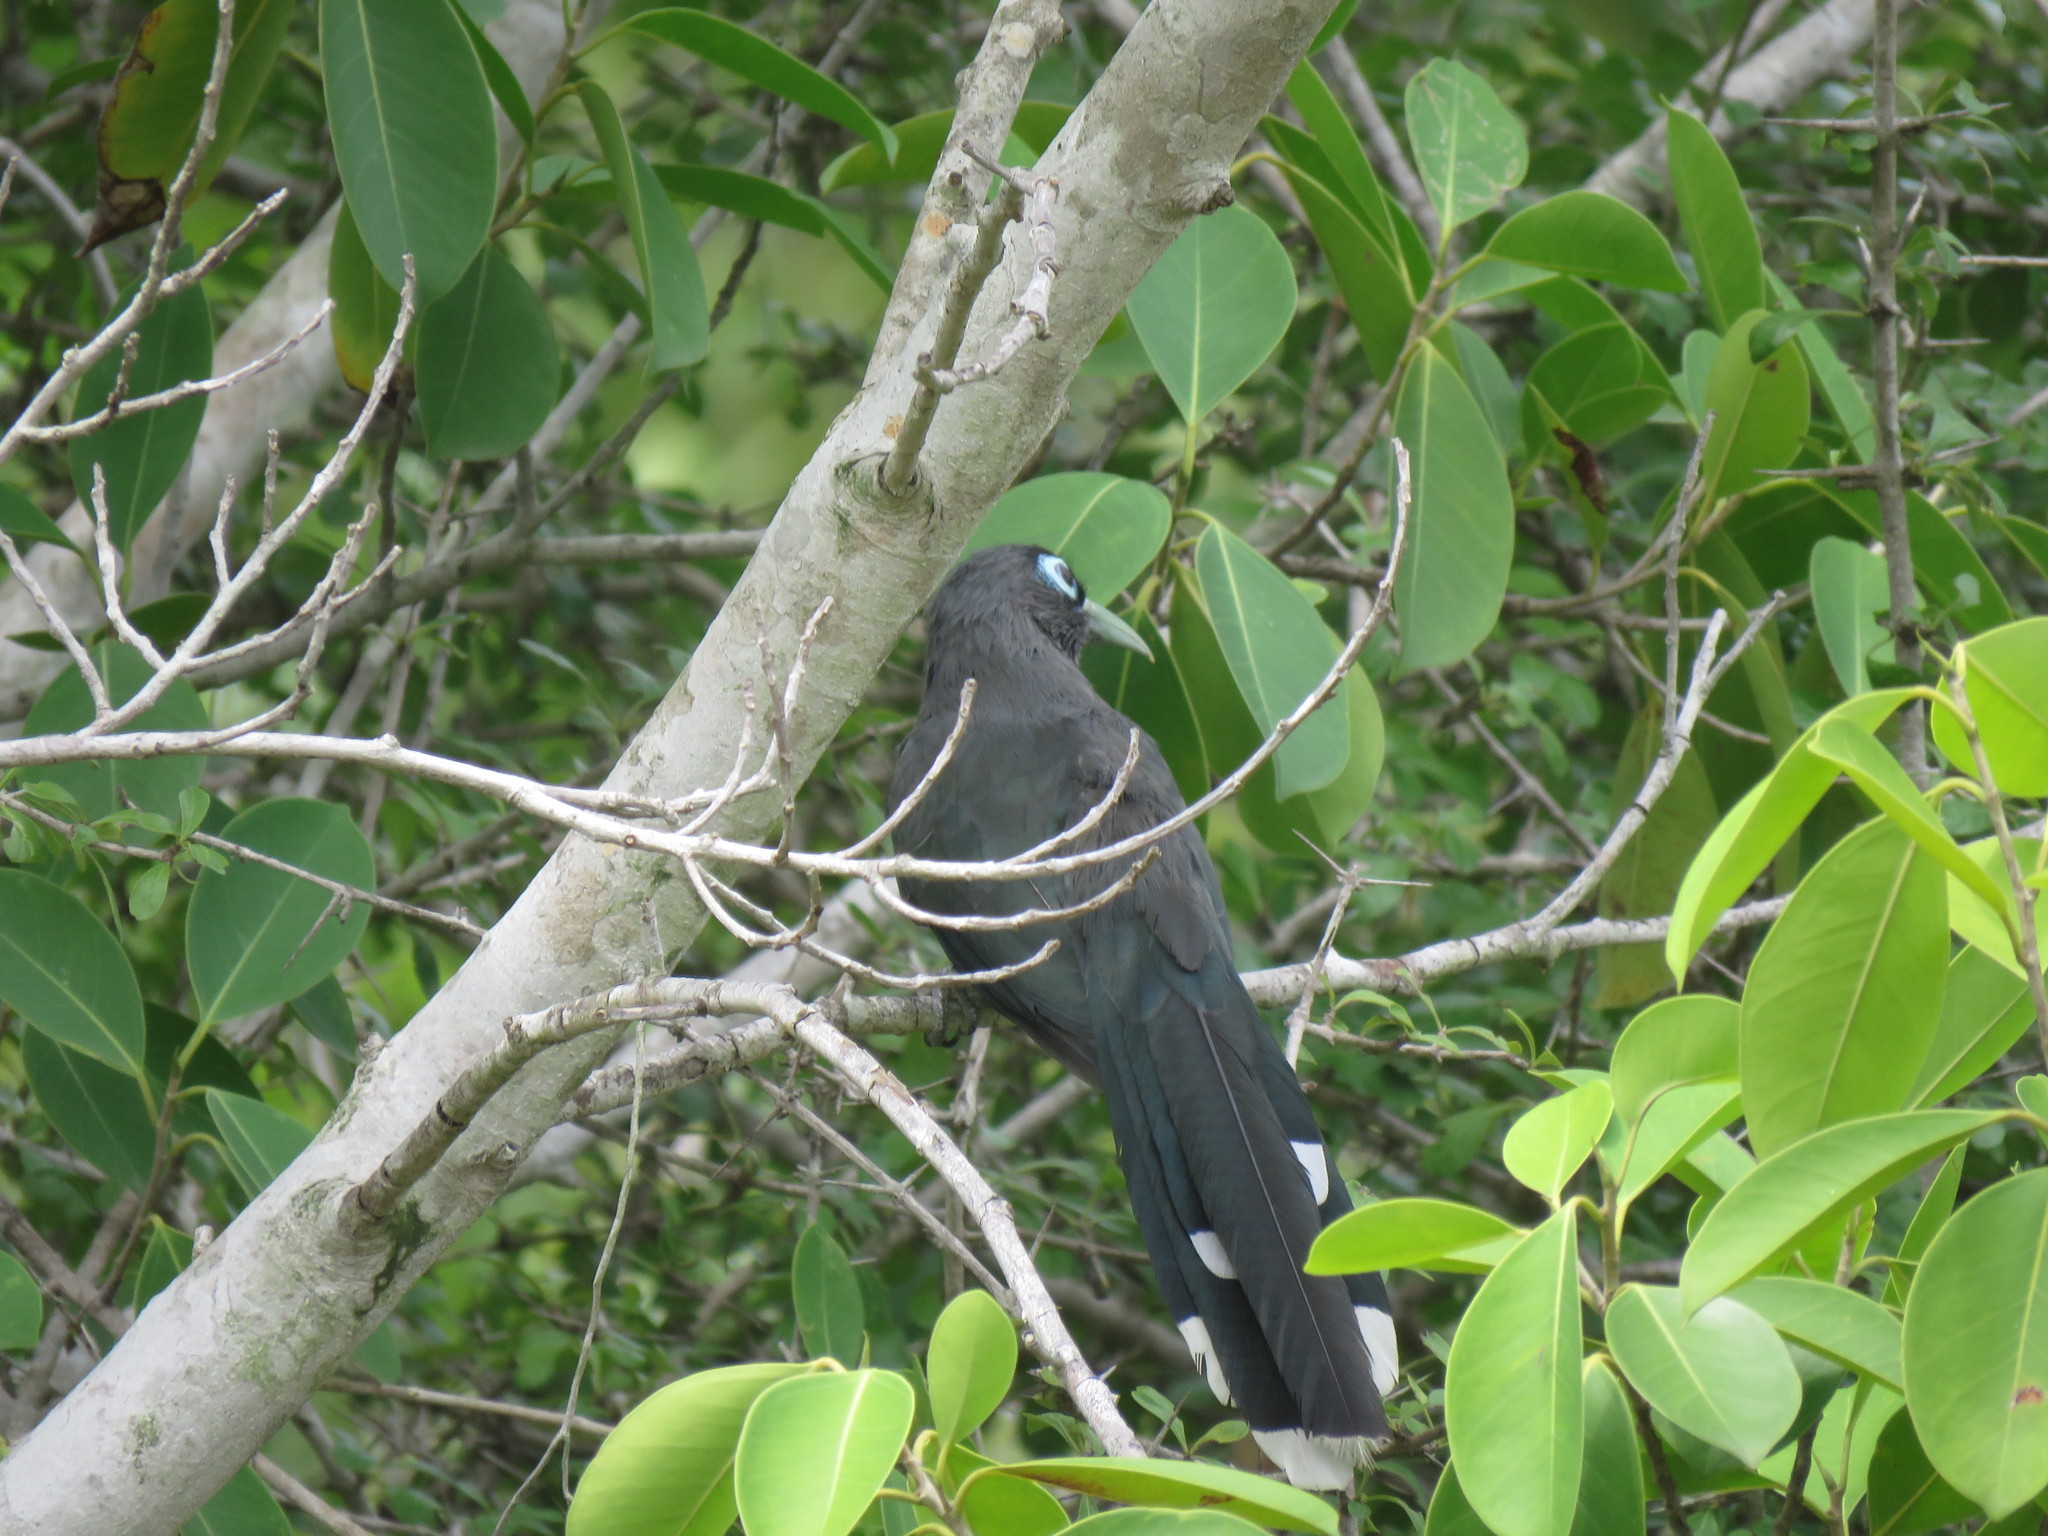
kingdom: Animalia
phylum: Chordata
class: Aves
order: Cuculiformes
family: Cuculidae
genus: Rhopodytes
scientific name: Rhopodytes viridirostris
